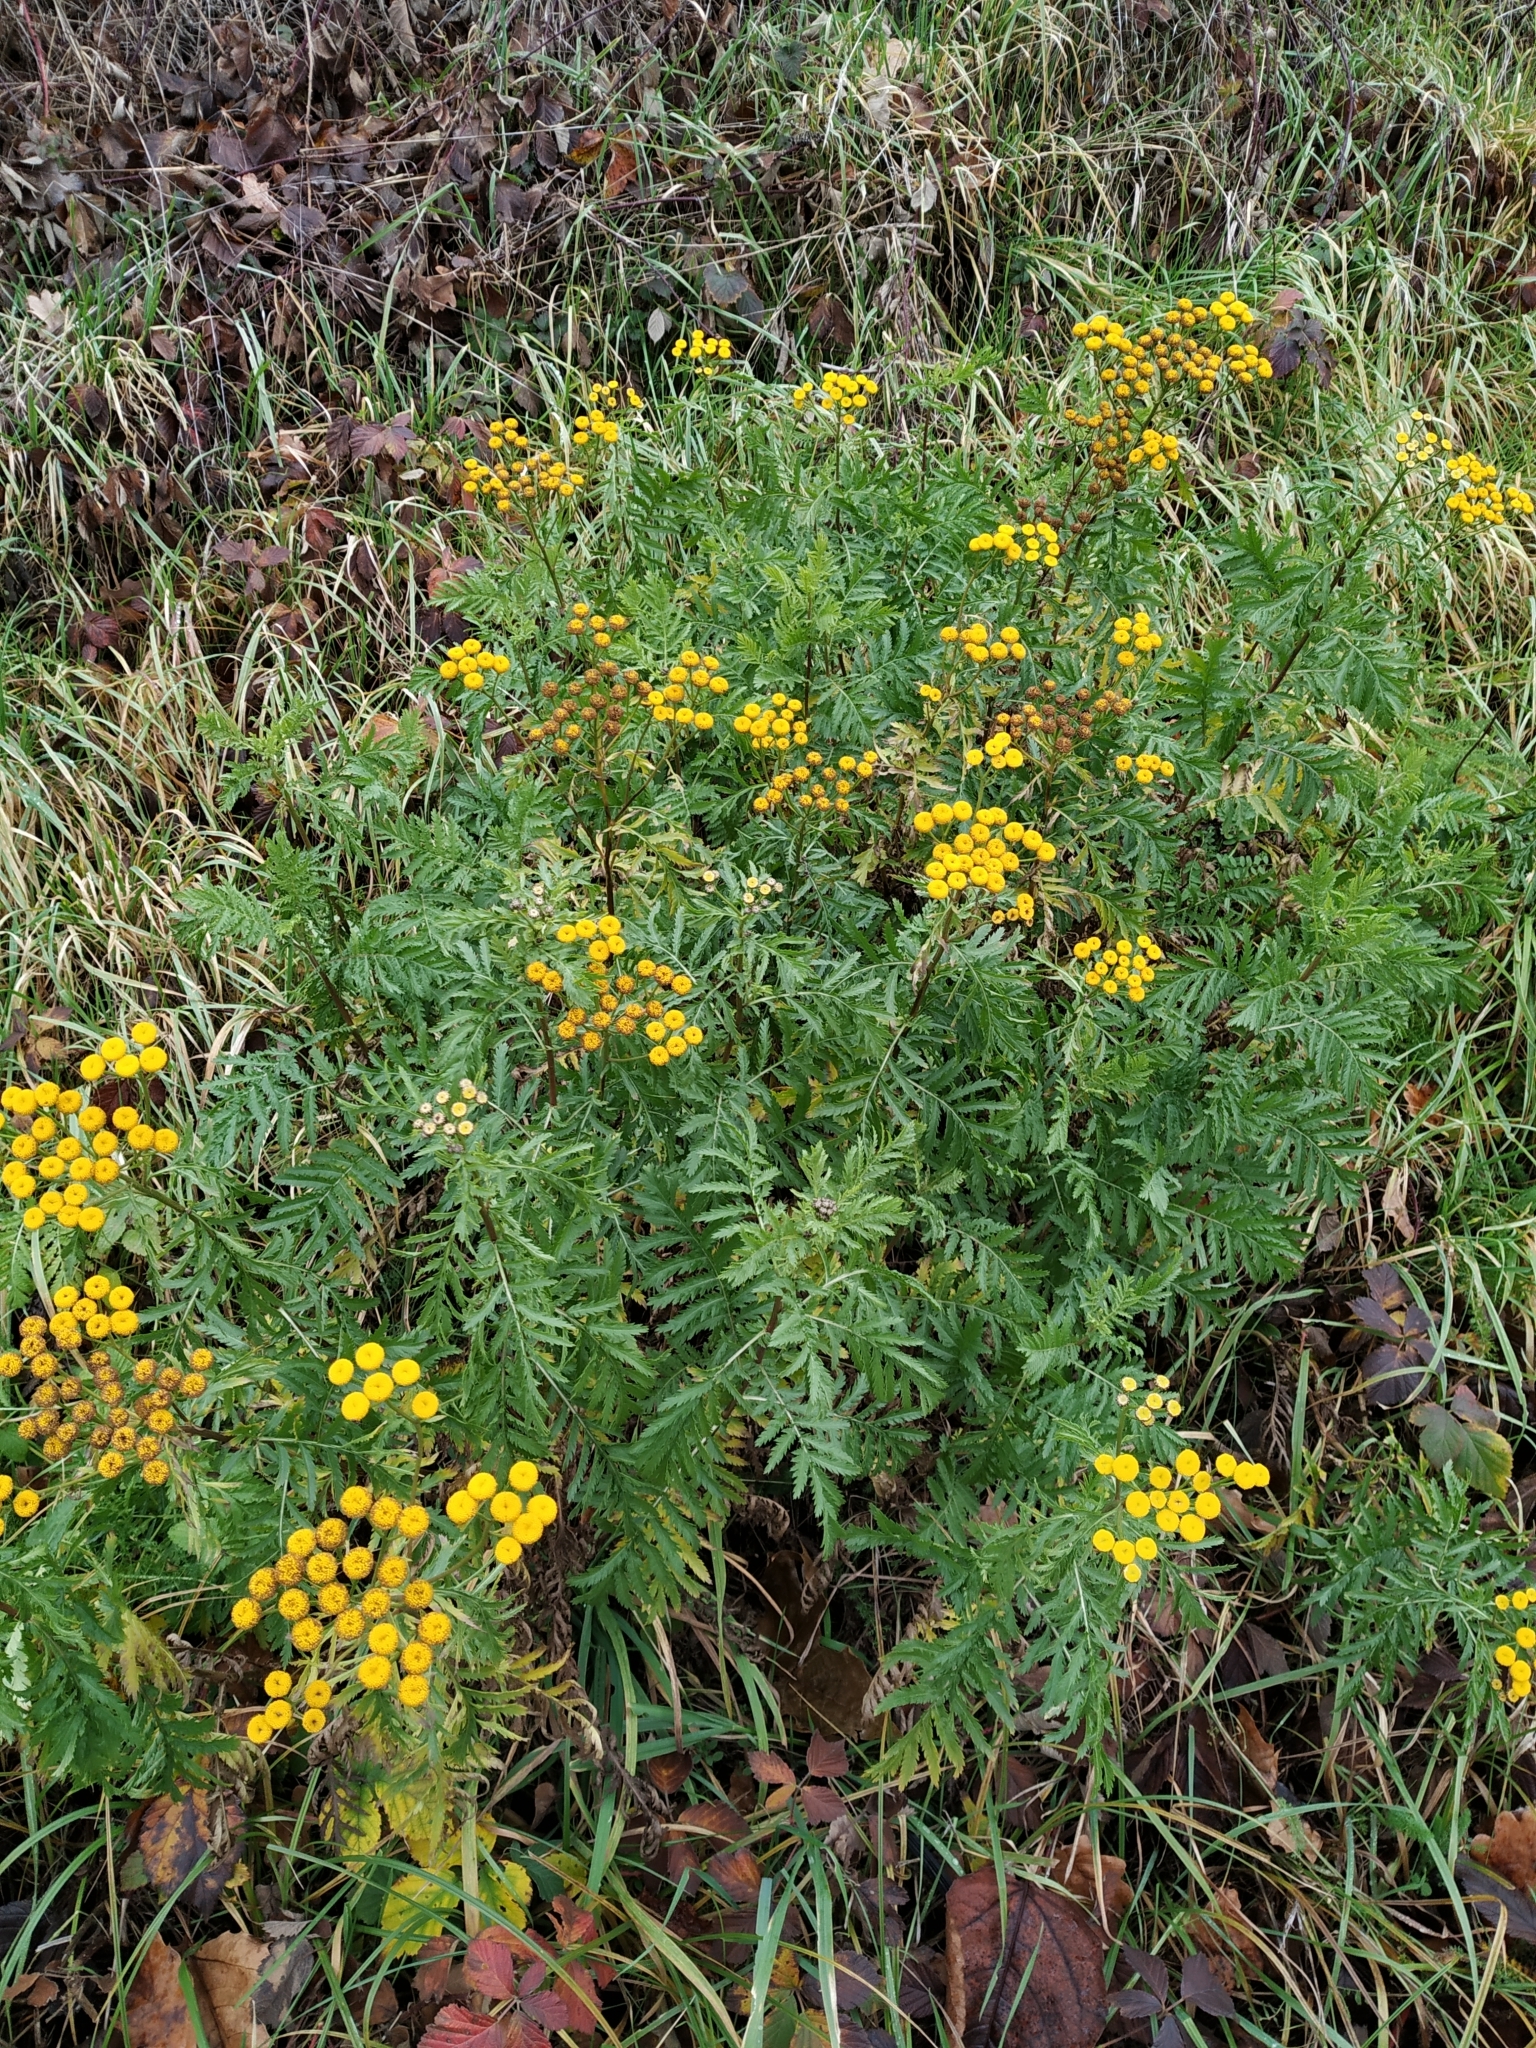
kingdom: Plantae
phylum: Tracheophyta
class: Magnoliopsida
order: Asterales
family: Asteraceae
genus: Tanacetum
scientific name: Tanacetum vulgare
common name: Common tansy
